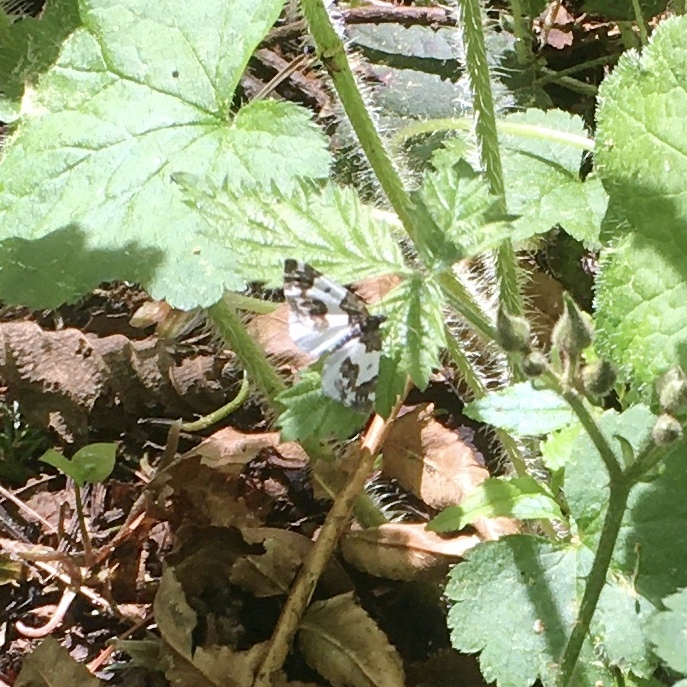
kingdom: Animalia
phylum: Arthropoda
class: Insecta
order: Lepidoptera
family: Geometridae
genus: Mesoleuca
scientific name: Mesoleuca gratulata
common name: Half-white carpet moth
